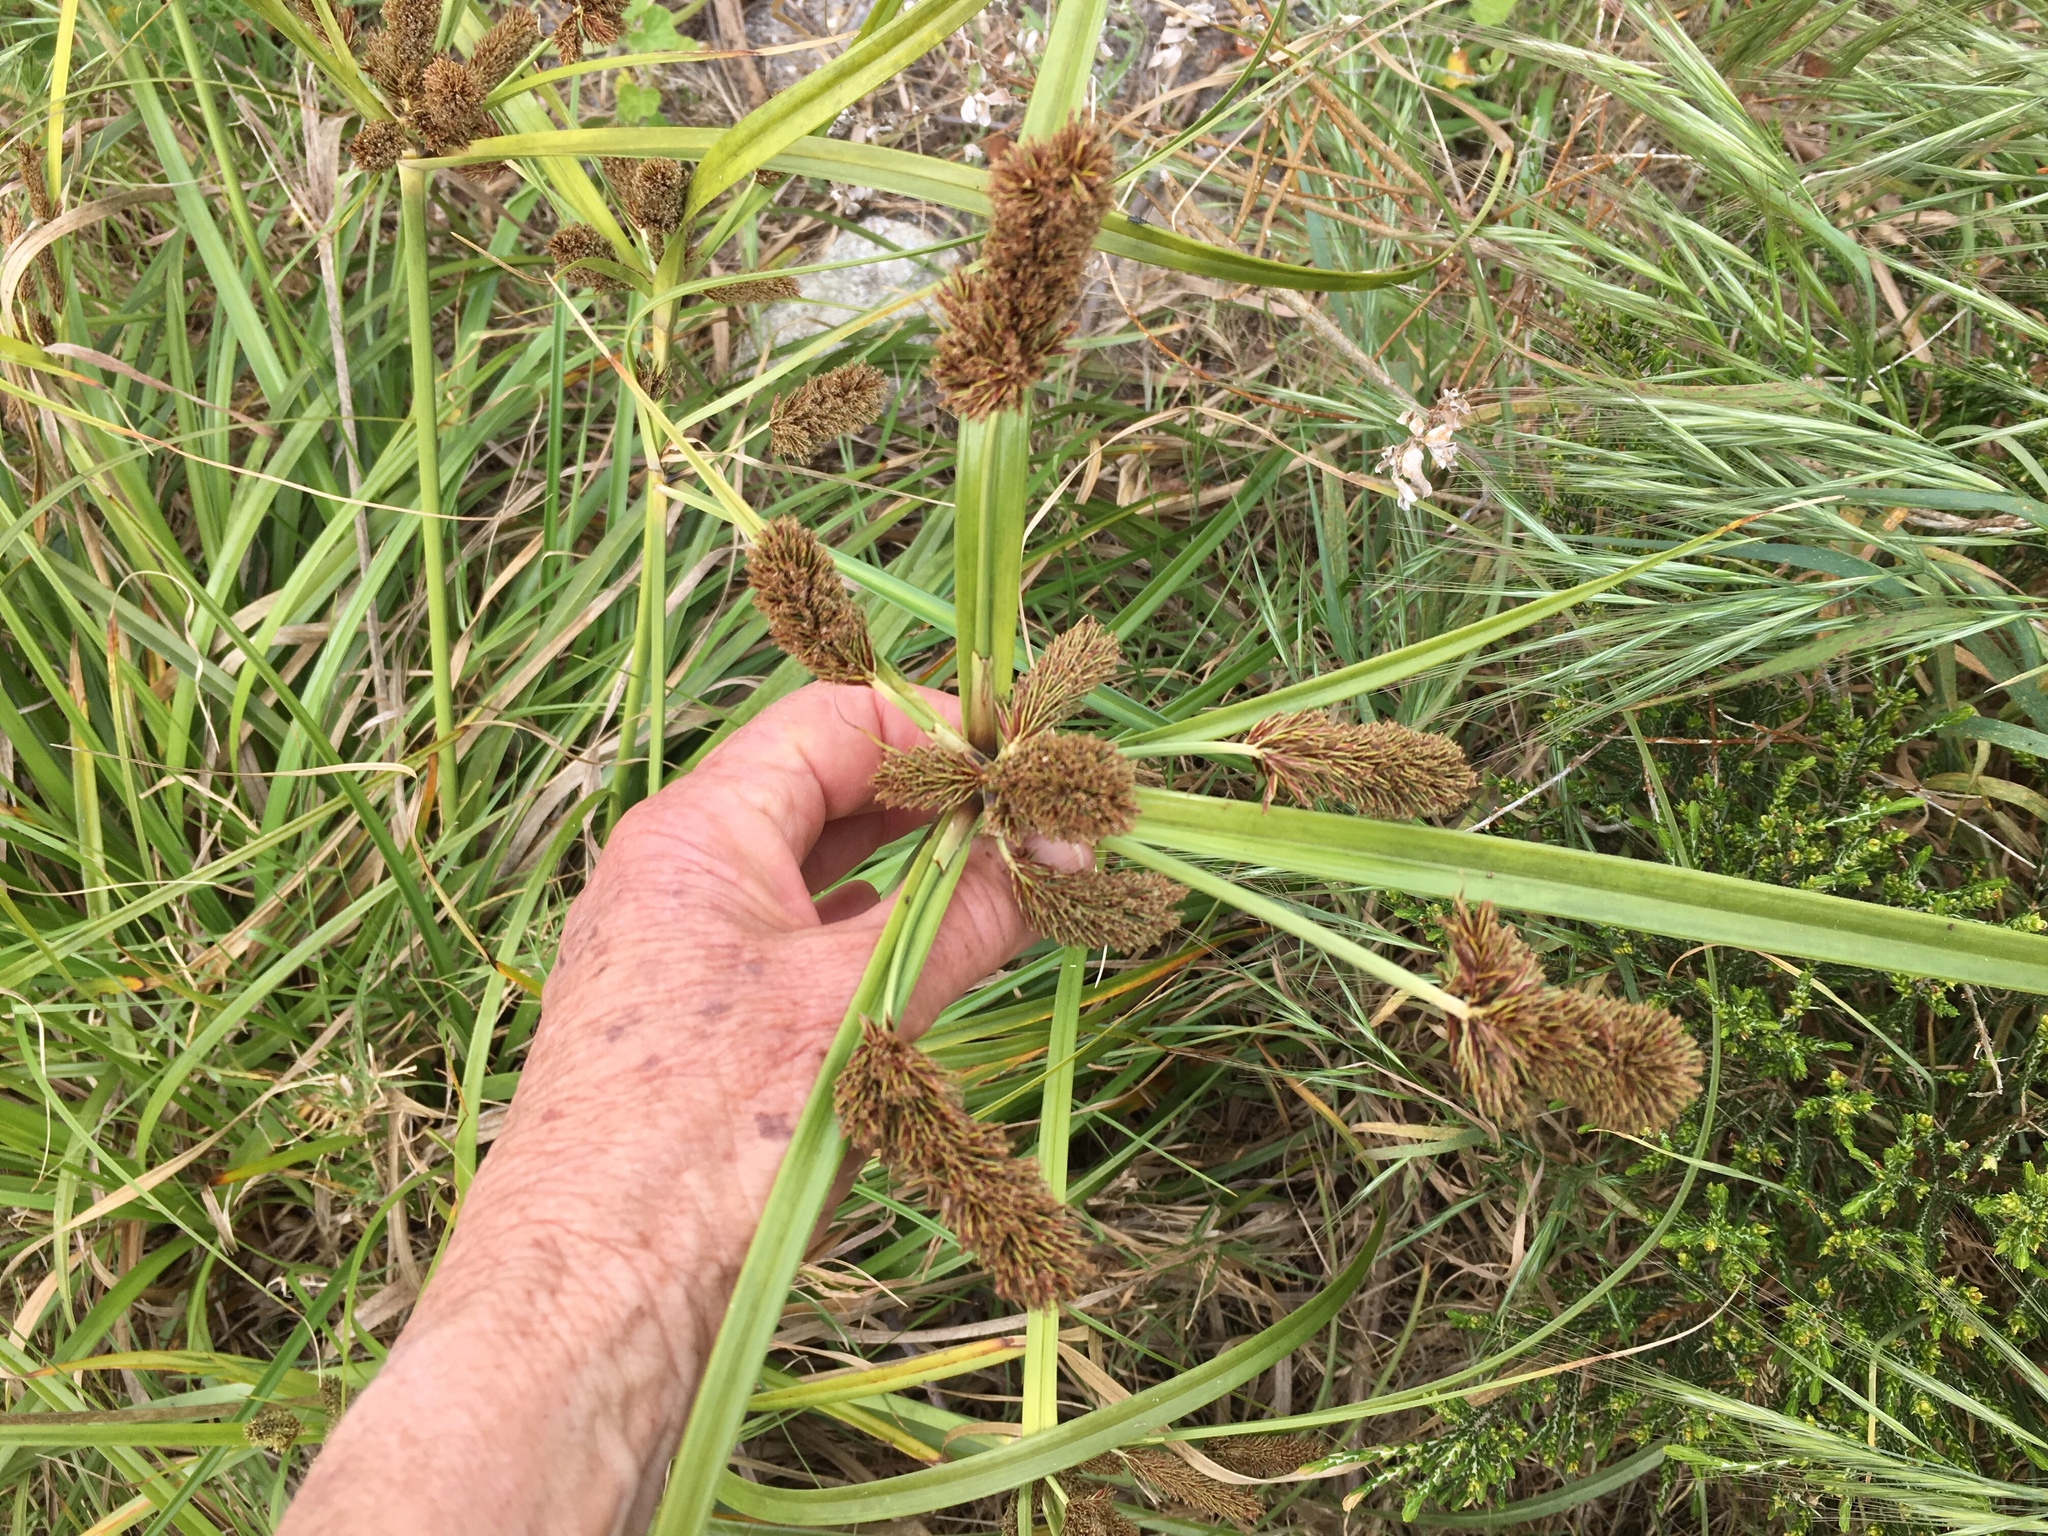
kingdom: Plantae
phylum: Tracheophyta
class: Liliopsida
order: Poales
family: Cyperaceae
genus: Cyperus
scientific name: Cyperus thunbergii
